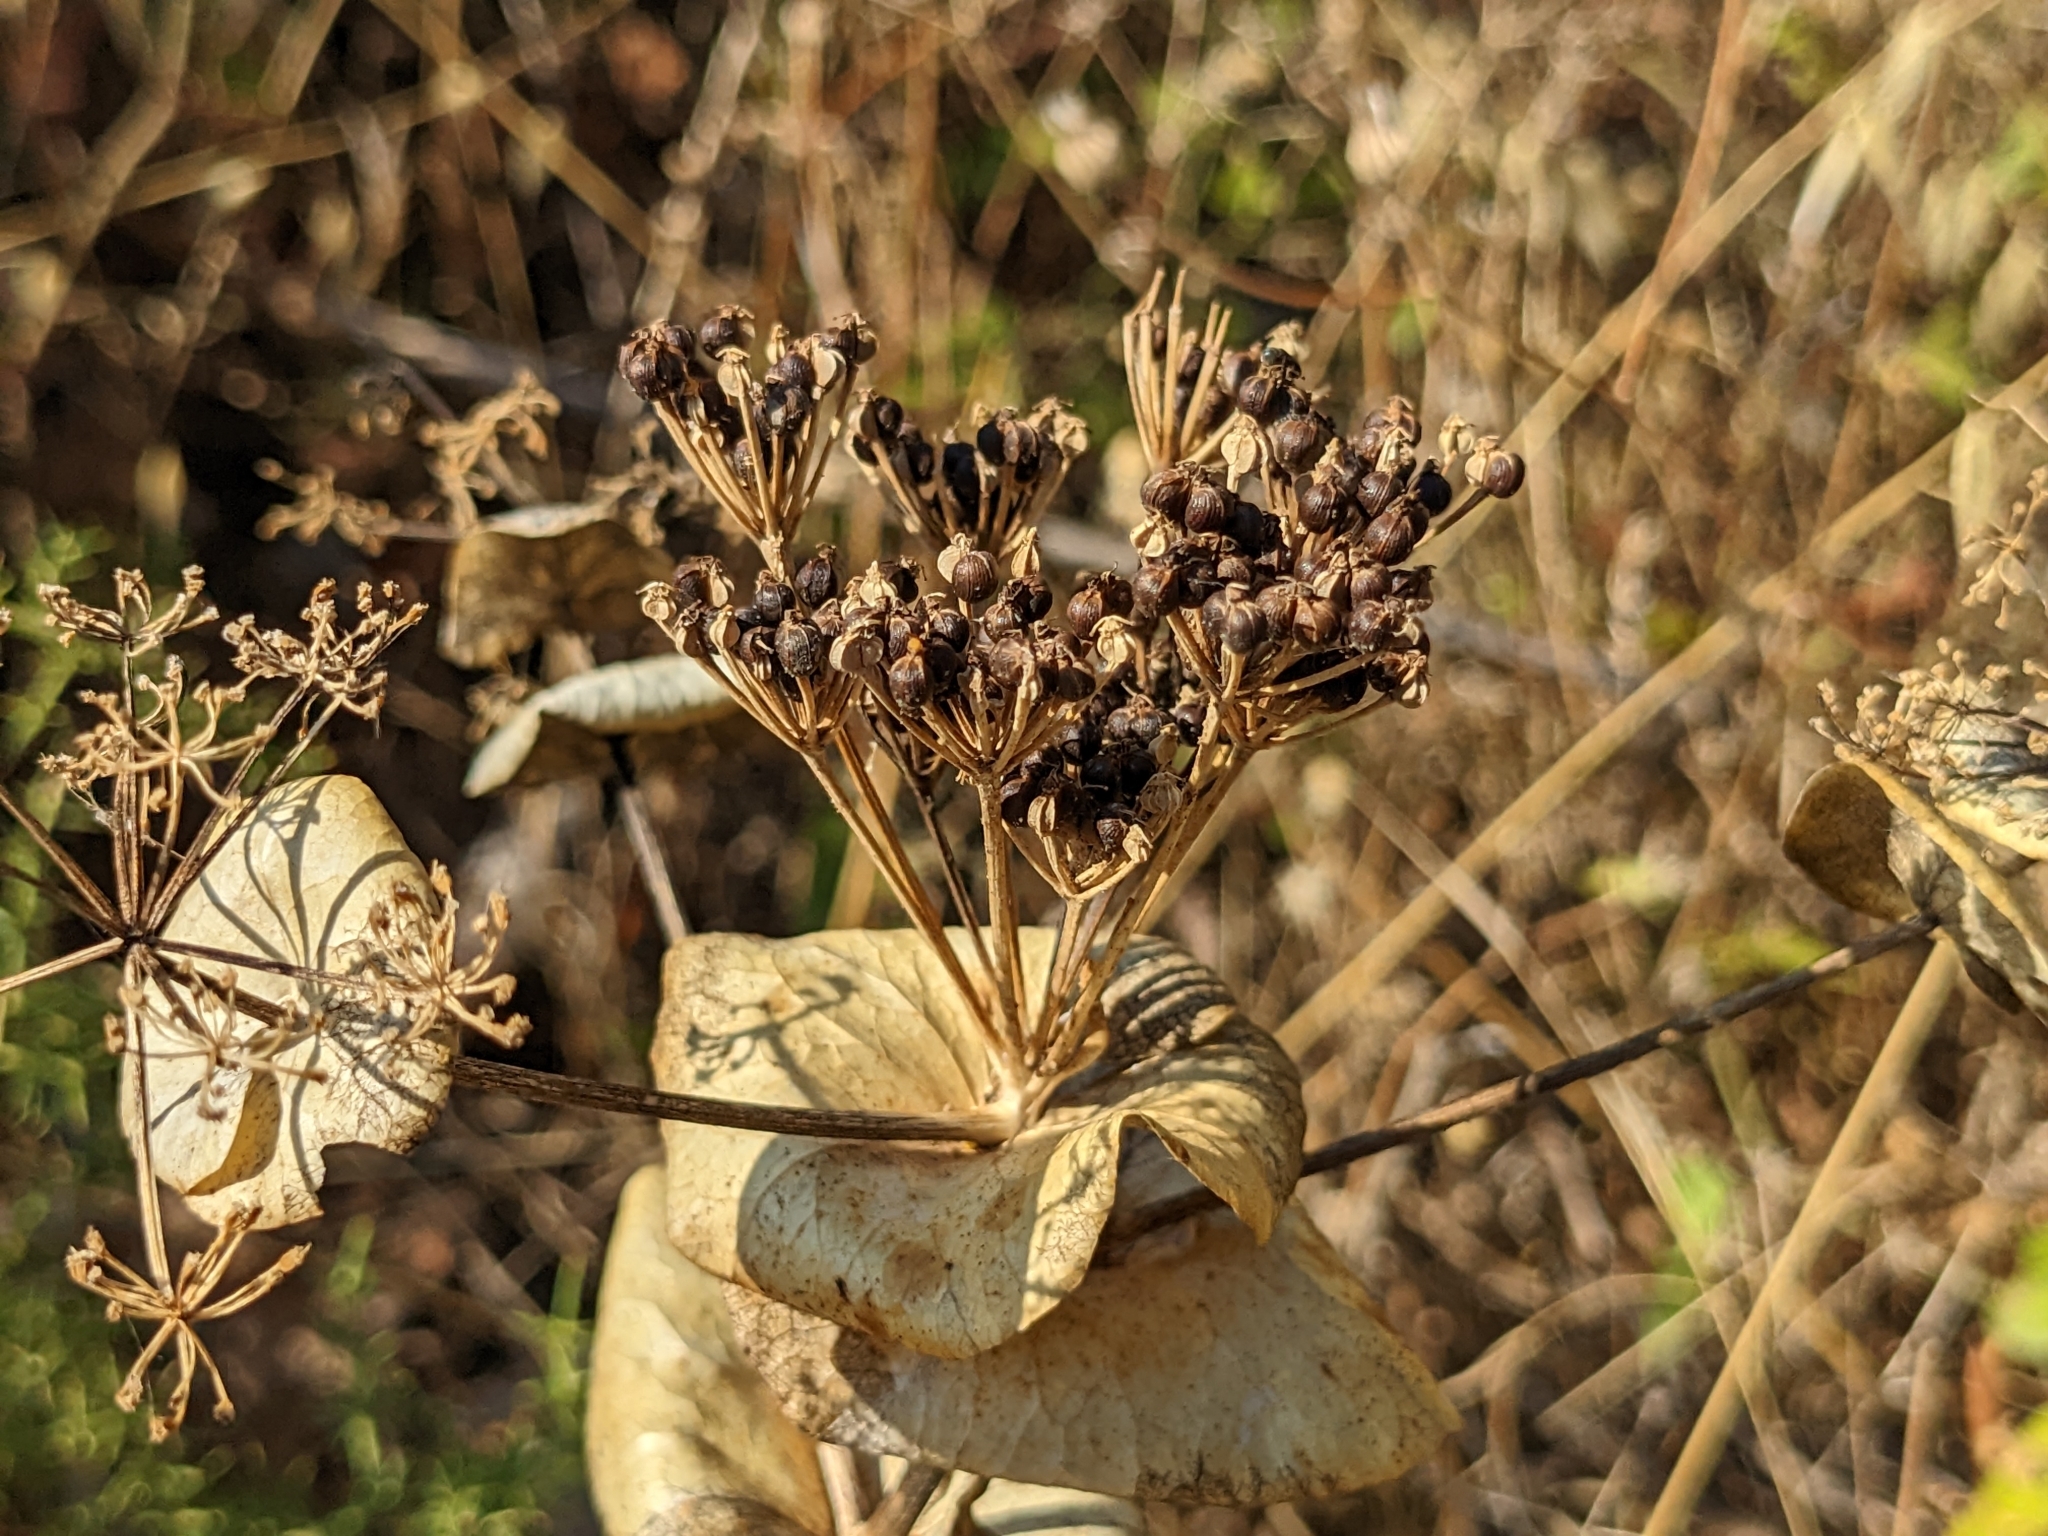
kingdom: Plantae
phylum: Tracheophyta
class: Magnoliopsida
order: Apiales
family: Apiaceae
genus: Smyrnium
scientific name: Smyrnium perfoliatum
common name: Perfoliate alexanders
